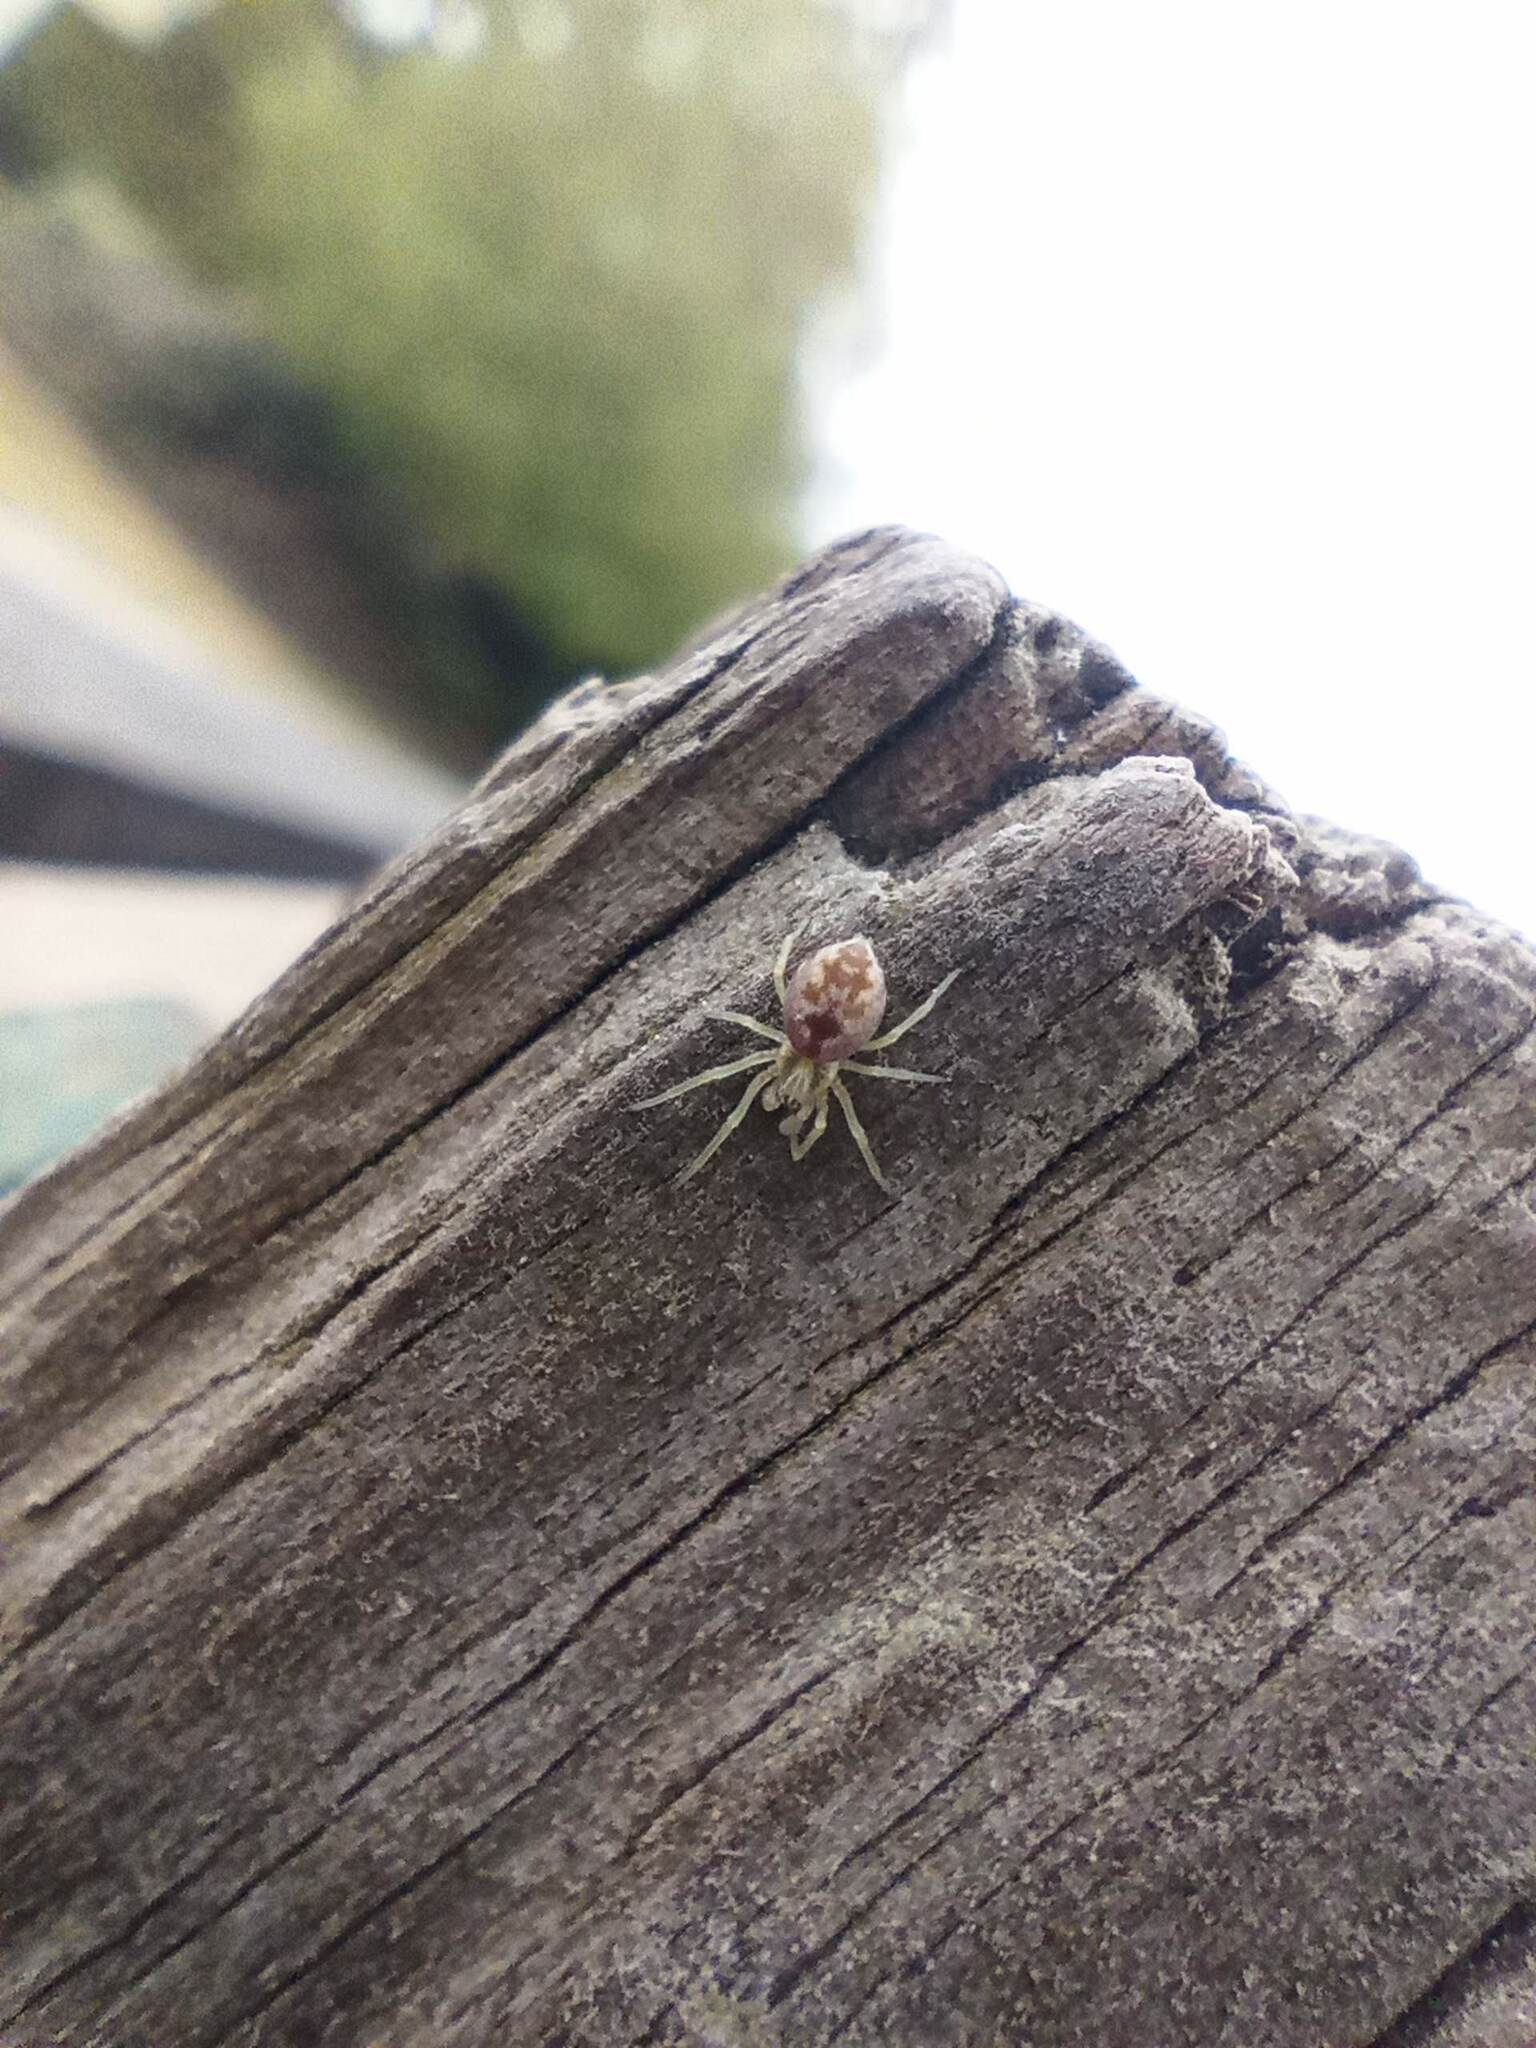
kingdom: Animalia
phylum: Arthropoda
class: Arachnida
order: Araneae
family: Dictynidae
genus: Nigma
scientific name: Nigma puella
